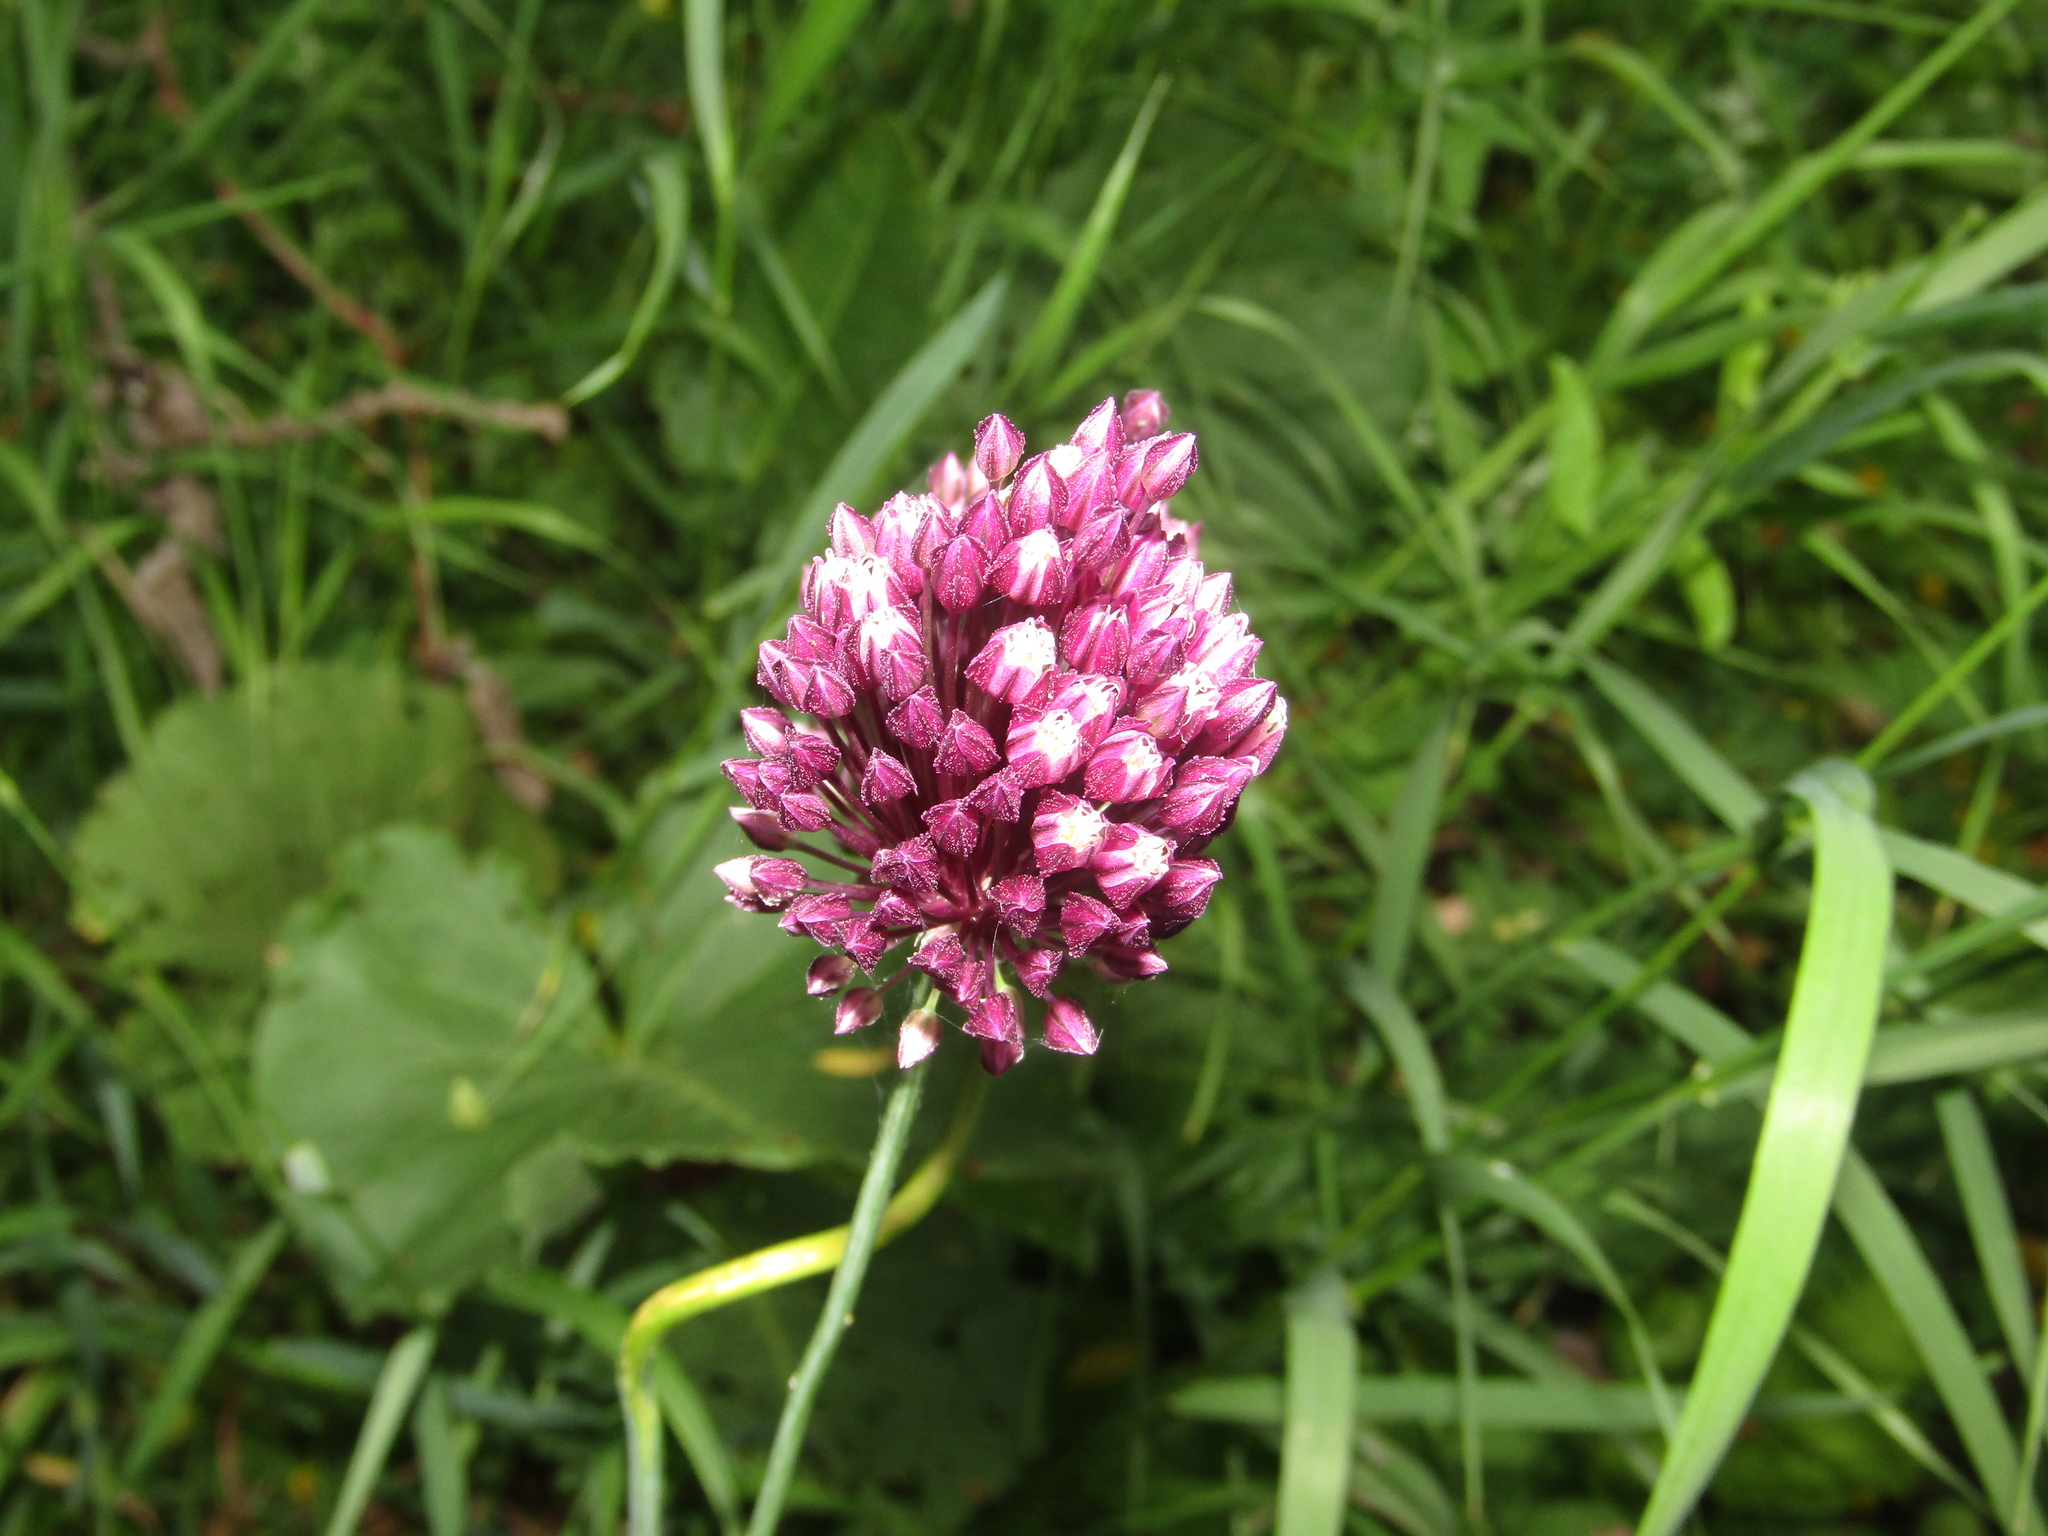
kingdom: Plantae
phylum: Tracheophyta
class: Liliopsida
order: Asparagales
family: Amaryllidaceae
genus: Allium
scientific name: Allium rotundum
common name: Sand leek
